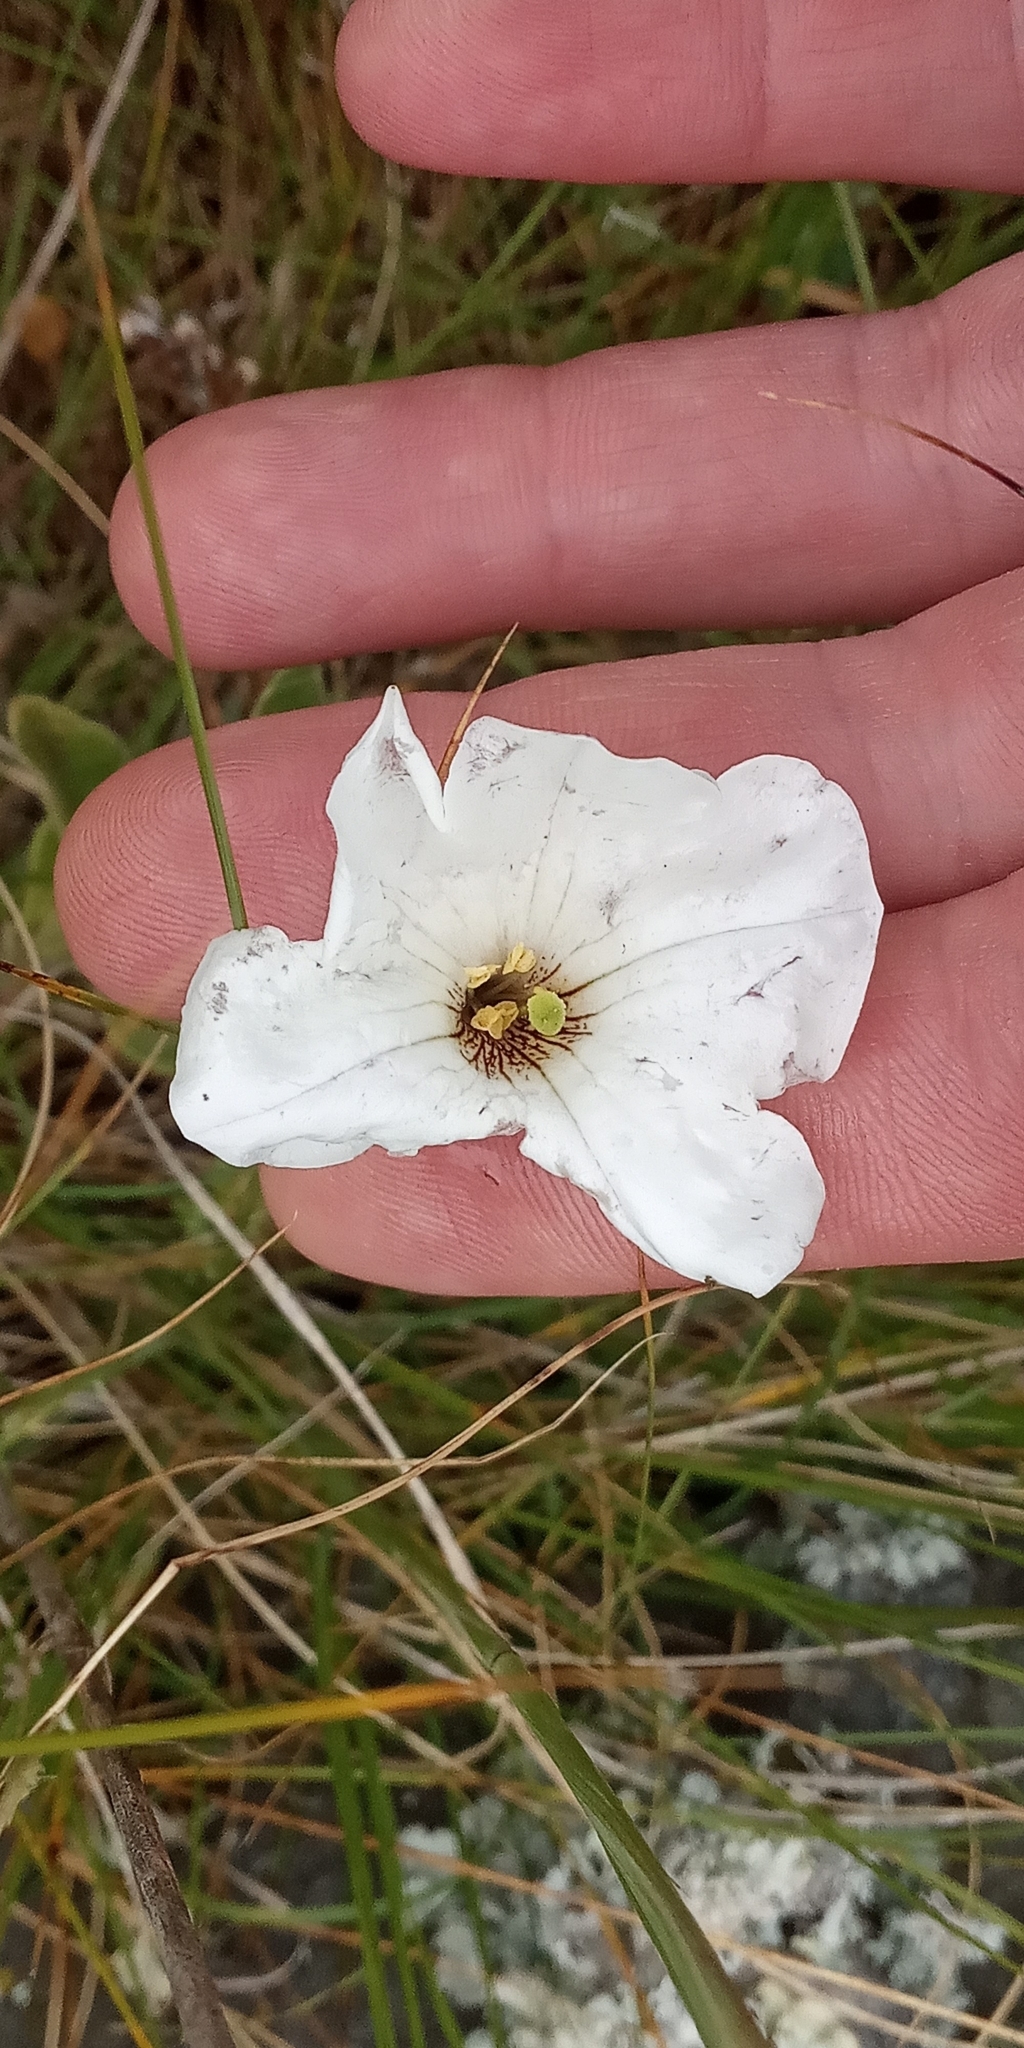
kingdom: Plantae
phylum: Tracheophyta
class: Magnoliopsida
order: Solanales
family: Solanaceae
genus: Petunia
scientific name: Petunia axillaris
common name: Large white petunia
